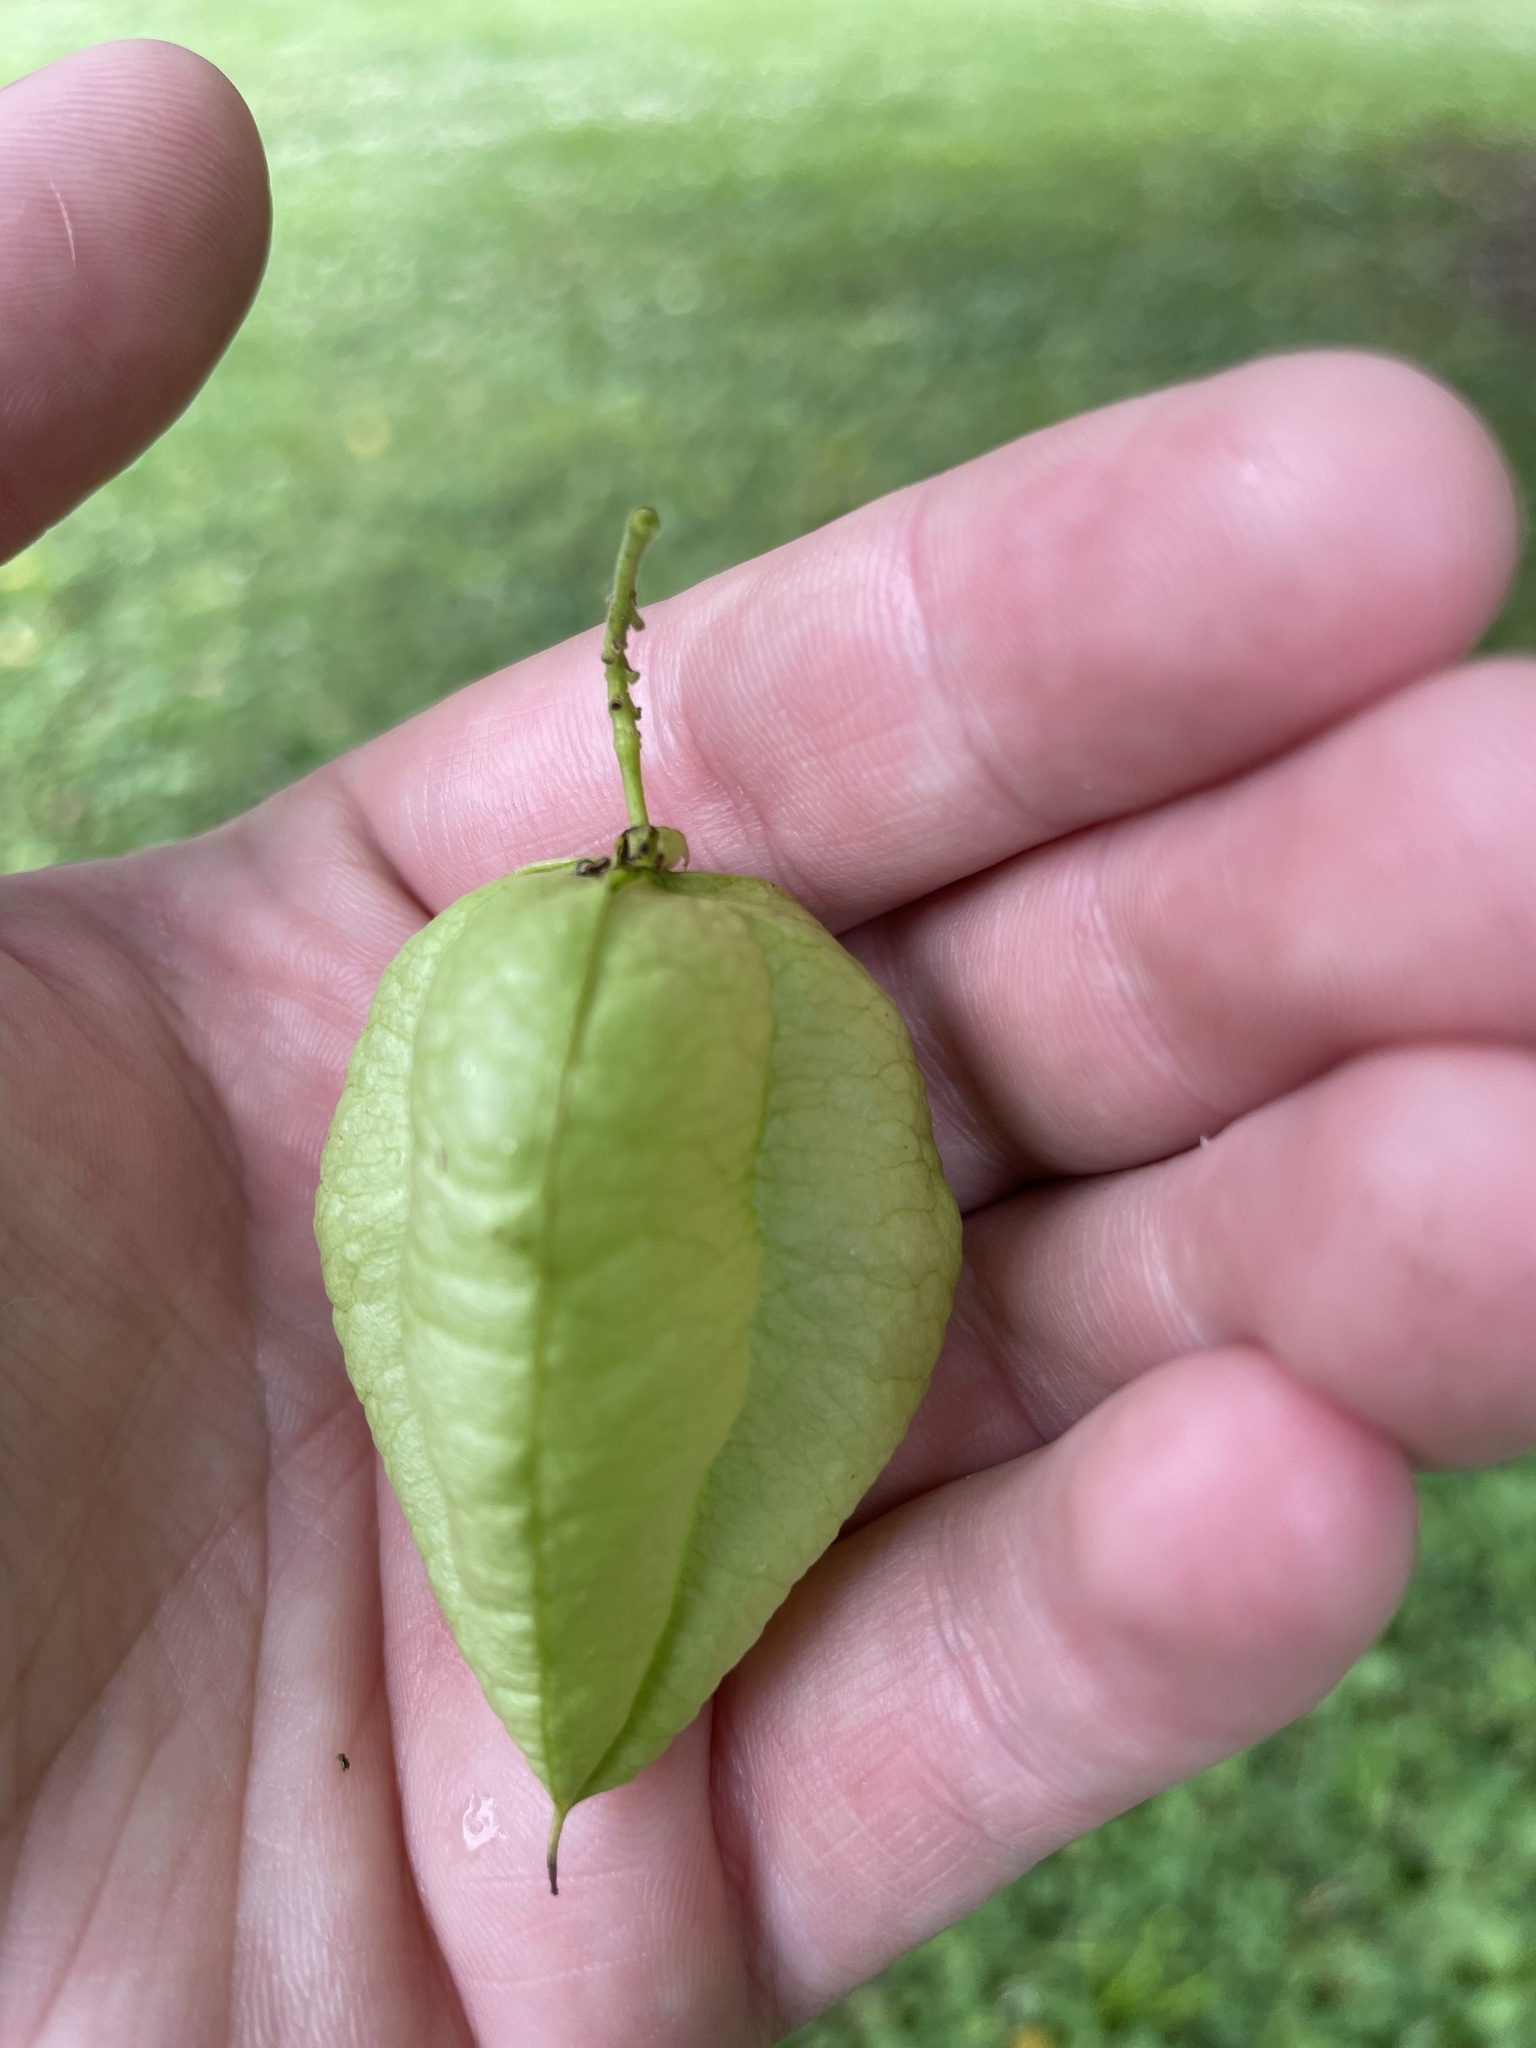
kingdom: Plantae
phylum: Tracheophyta
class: Magnoliopsida
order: Sapindales
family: Sapindaceae
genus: Koelreuteria
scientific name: Koelreuteria paniculata
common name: Pride-of-india
